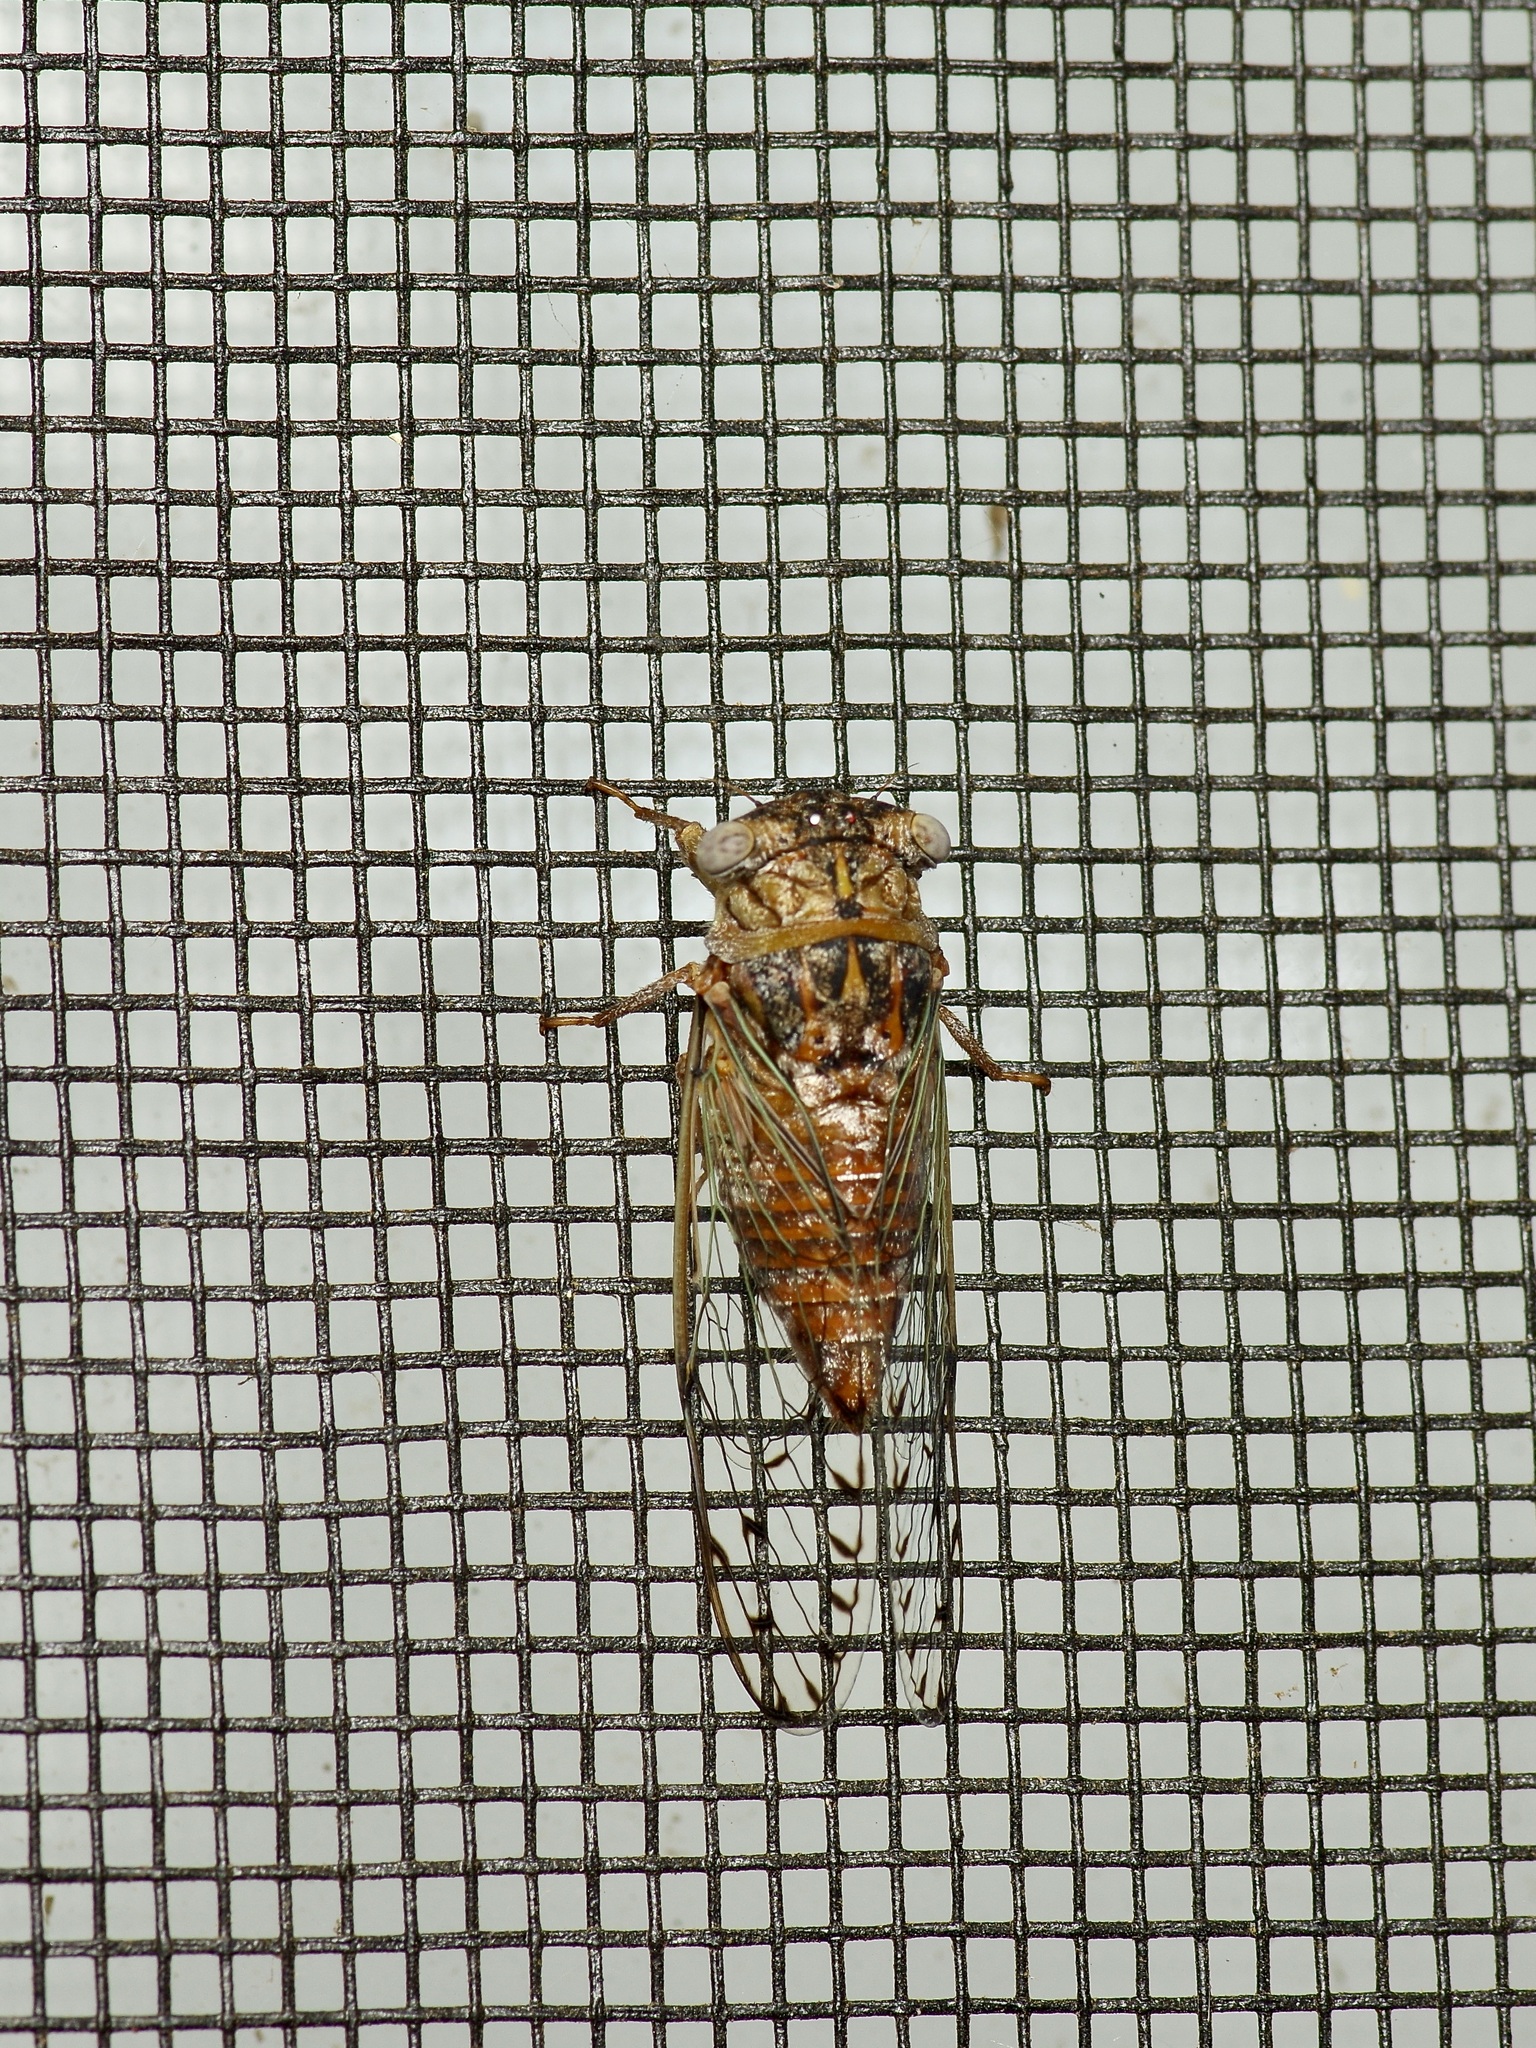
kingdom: Animalia
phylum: Arthropoda
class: Insecta
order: Hemiptera
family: Cicadidae
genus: Pacarina
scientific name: Pacarina puella
